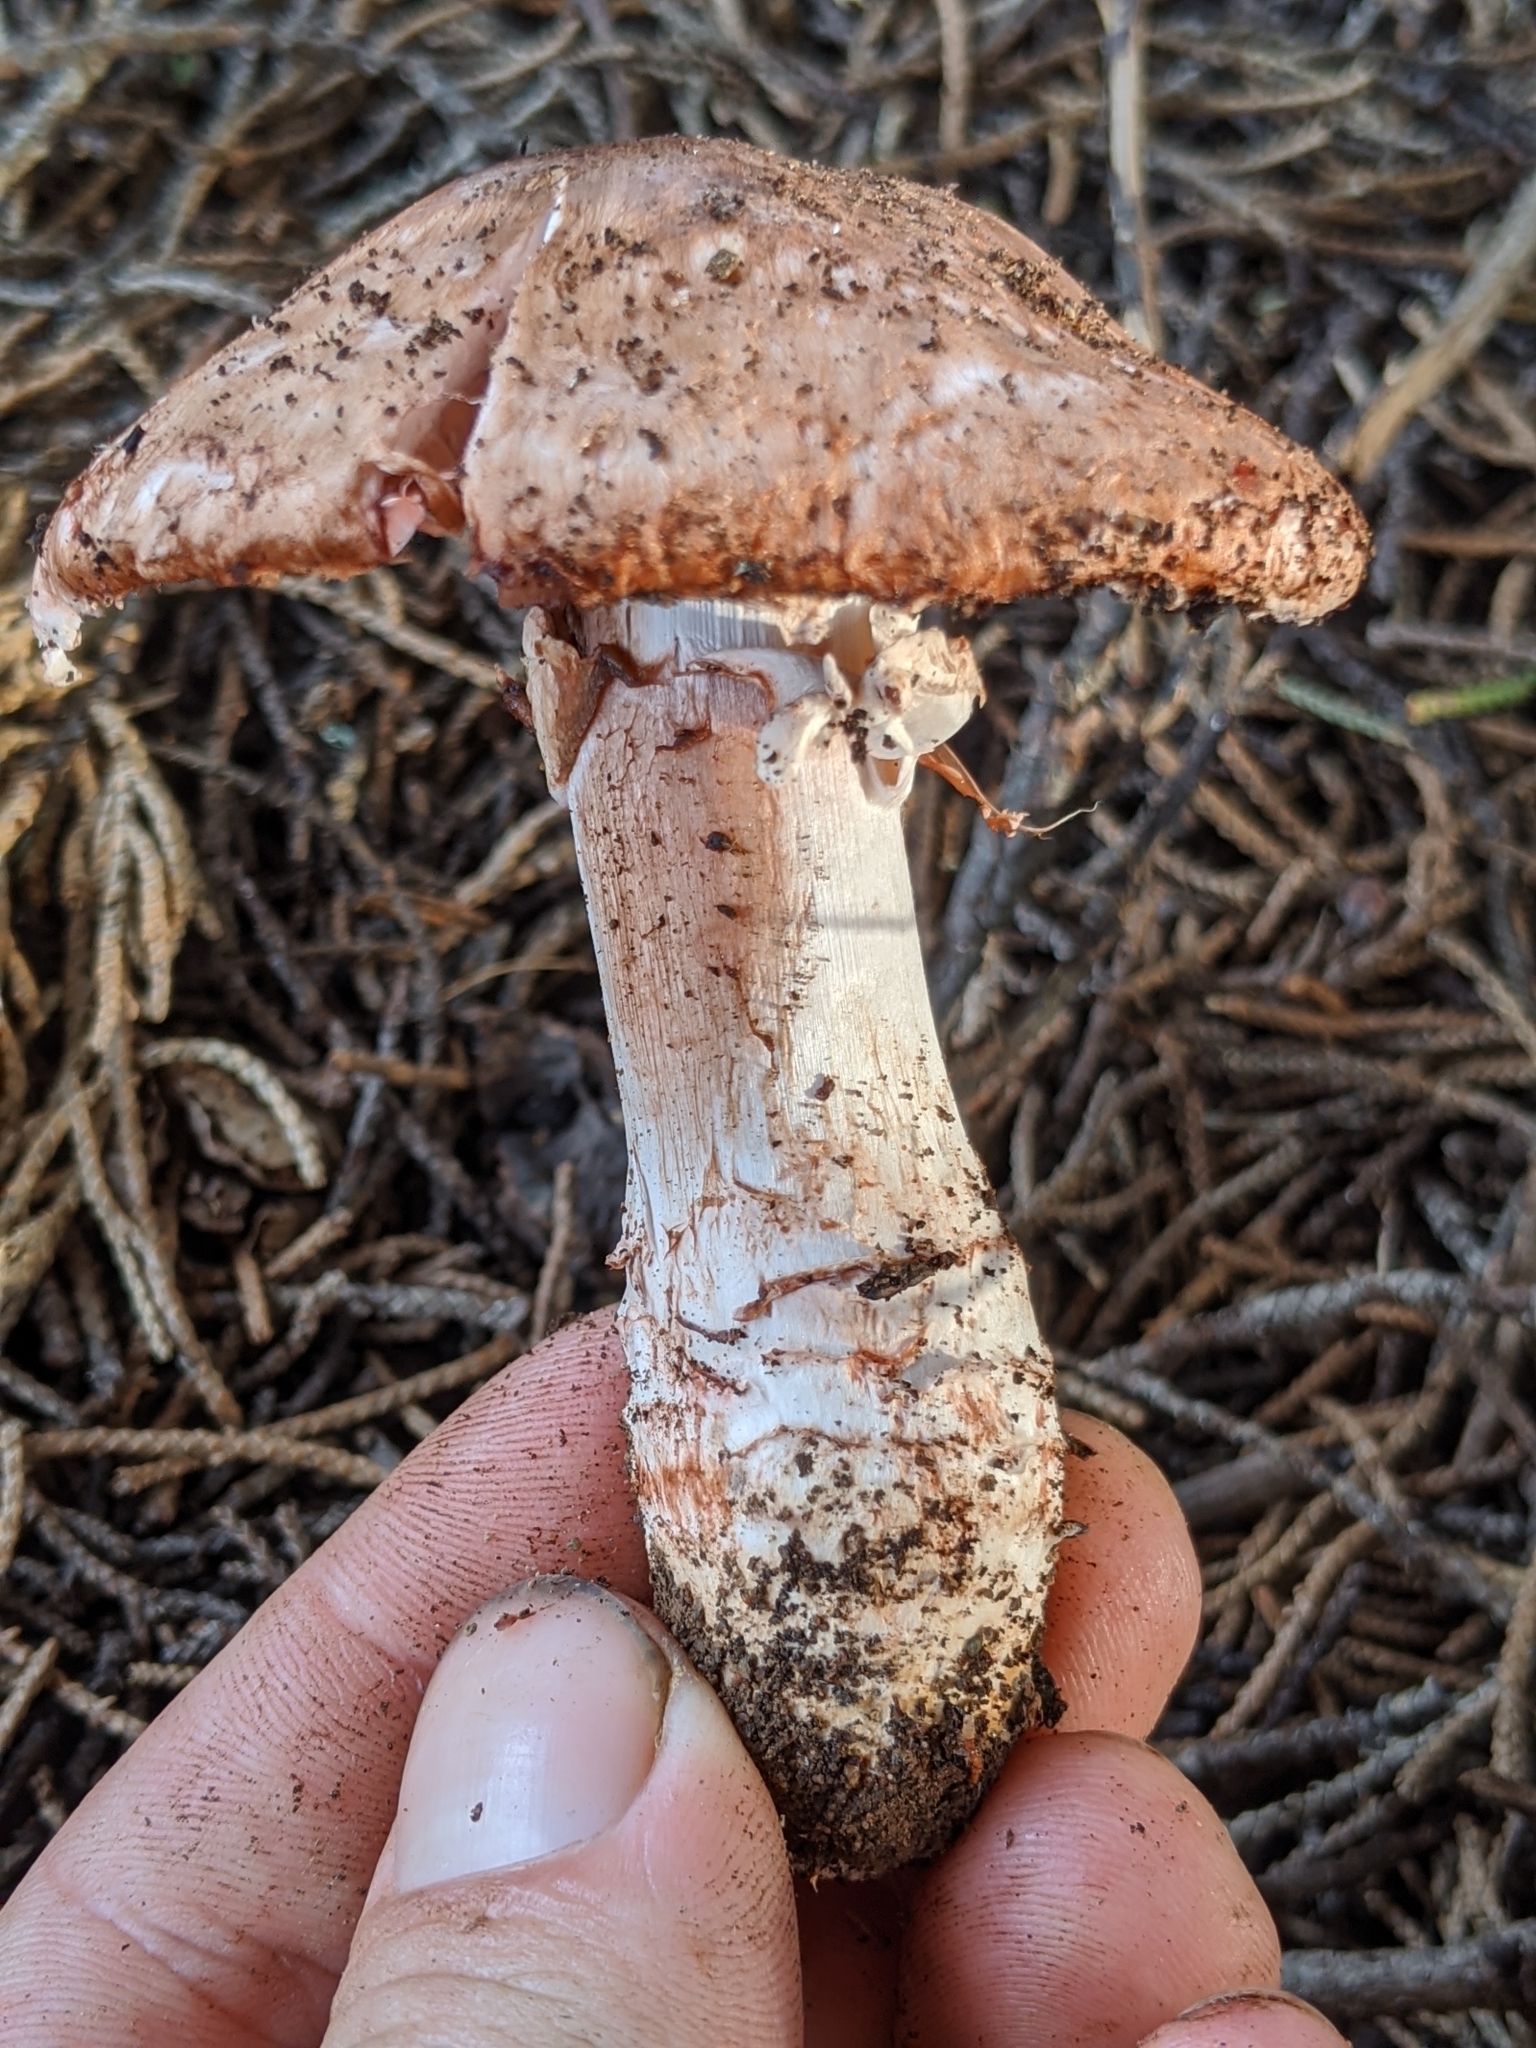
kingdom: Fungi
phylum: Basidiomycota
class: Agaricomycetes
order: Agaricales
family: Agaricaceae
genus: Agaricus
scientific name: Agaricus brunneofibrillosus
